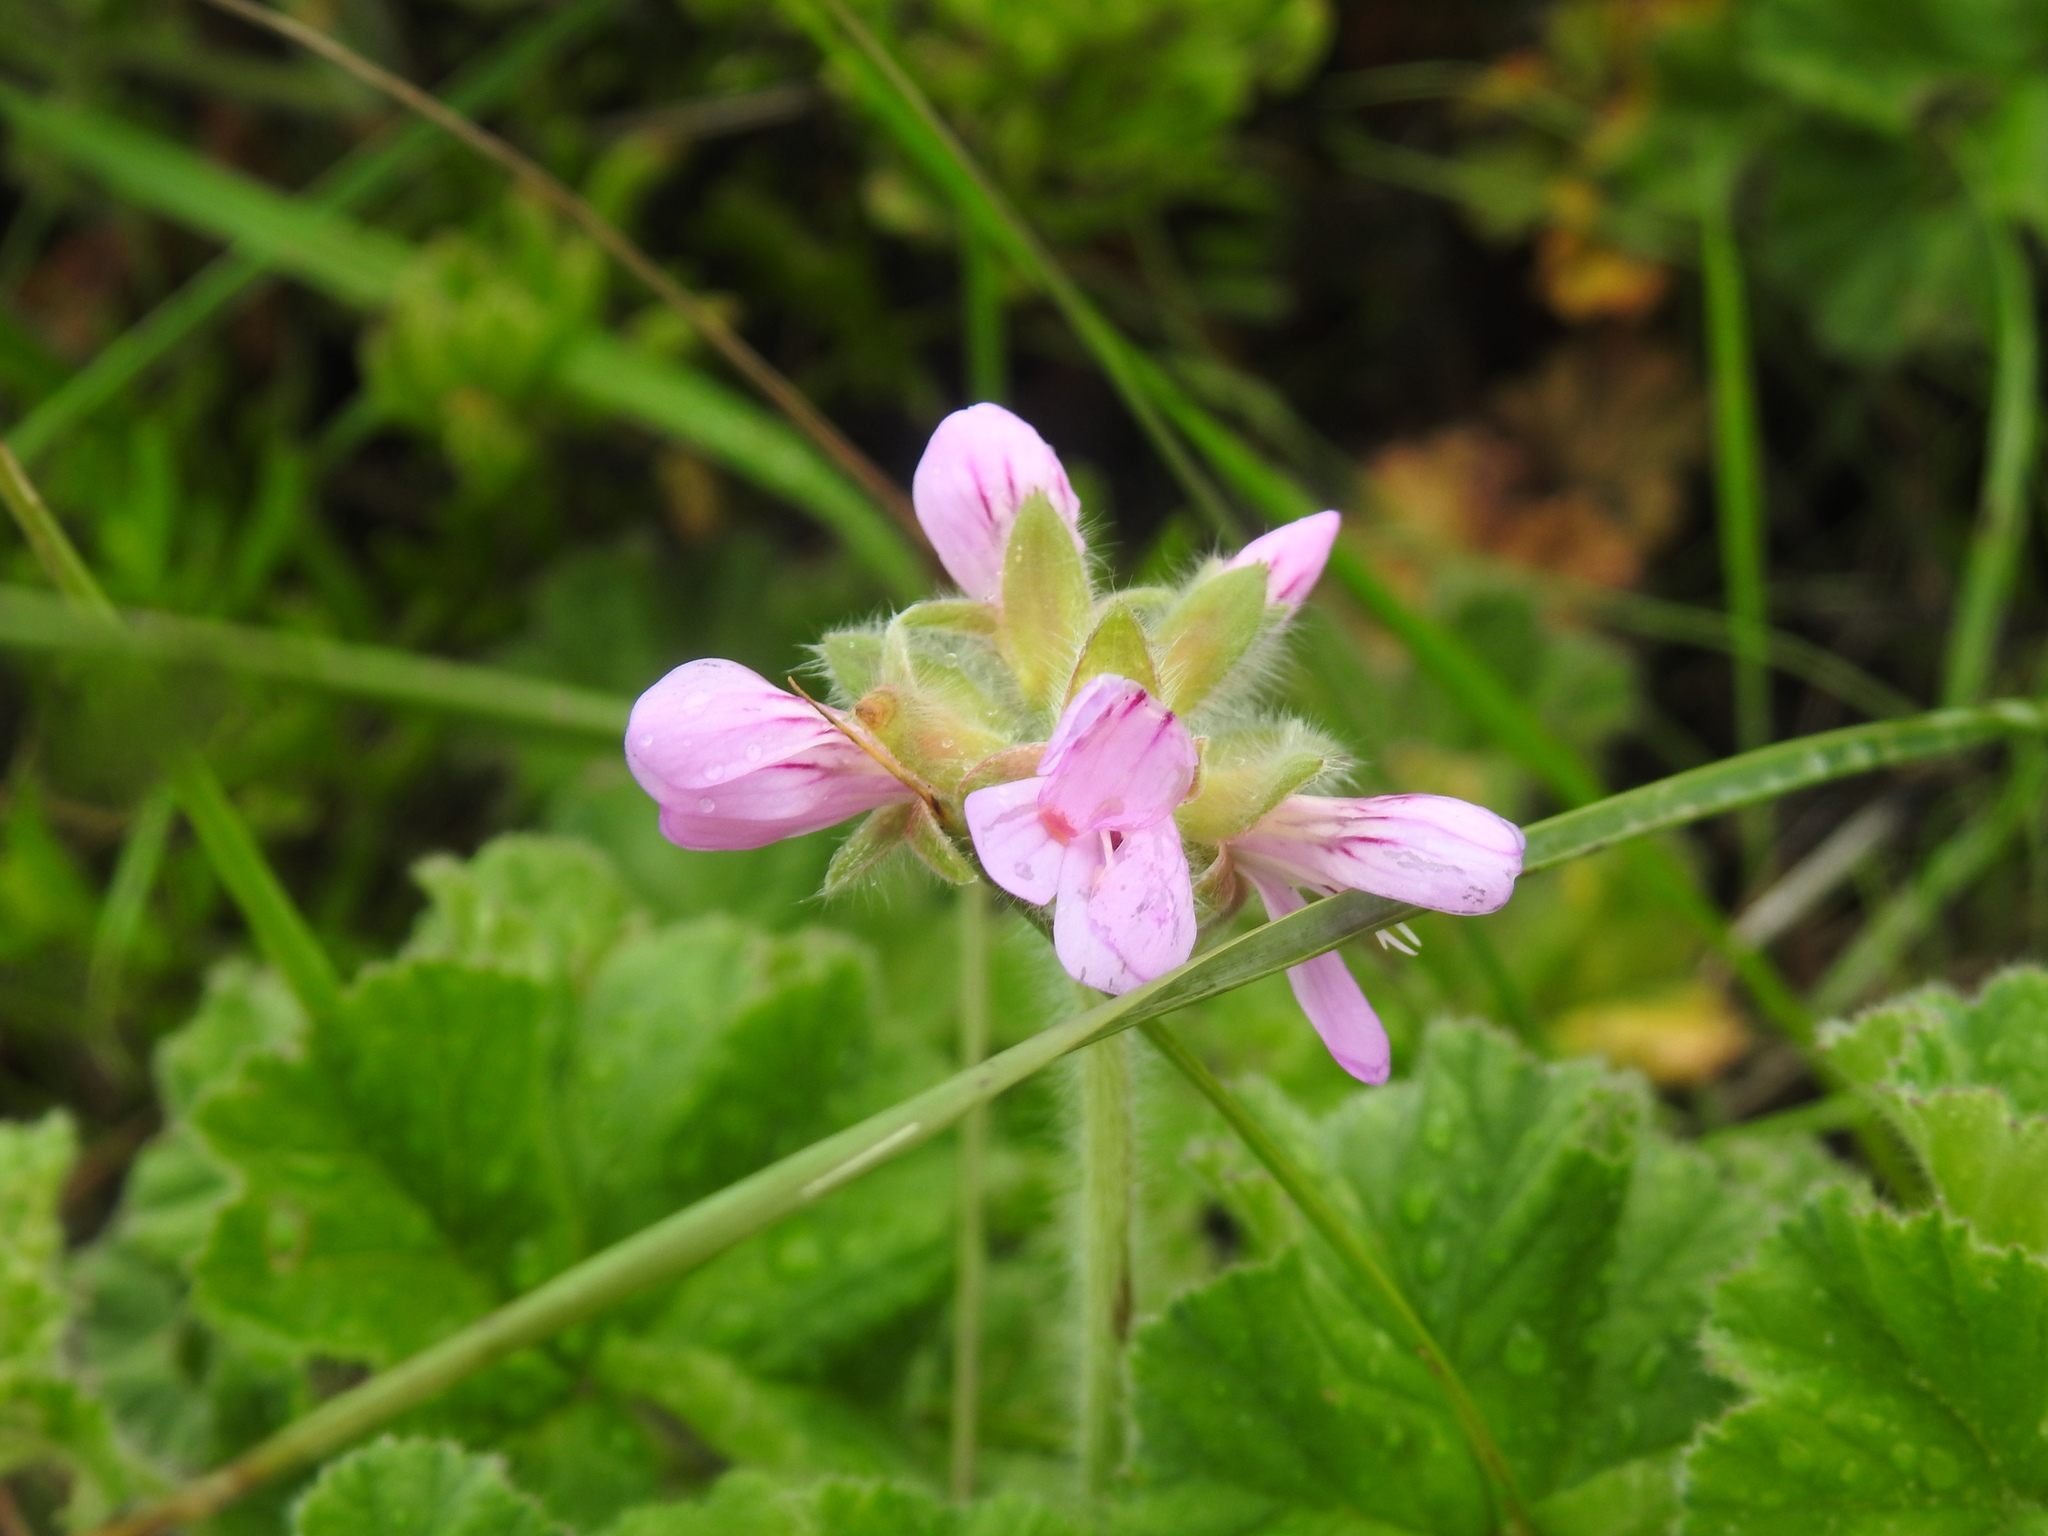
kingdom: Plantae
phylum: Tracheophyta
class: Magnoliopsida
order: Geraniales
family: Geraniaceae
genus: Pelargonium
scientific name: Pelargonium capitatum
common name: Rose scented geranium
